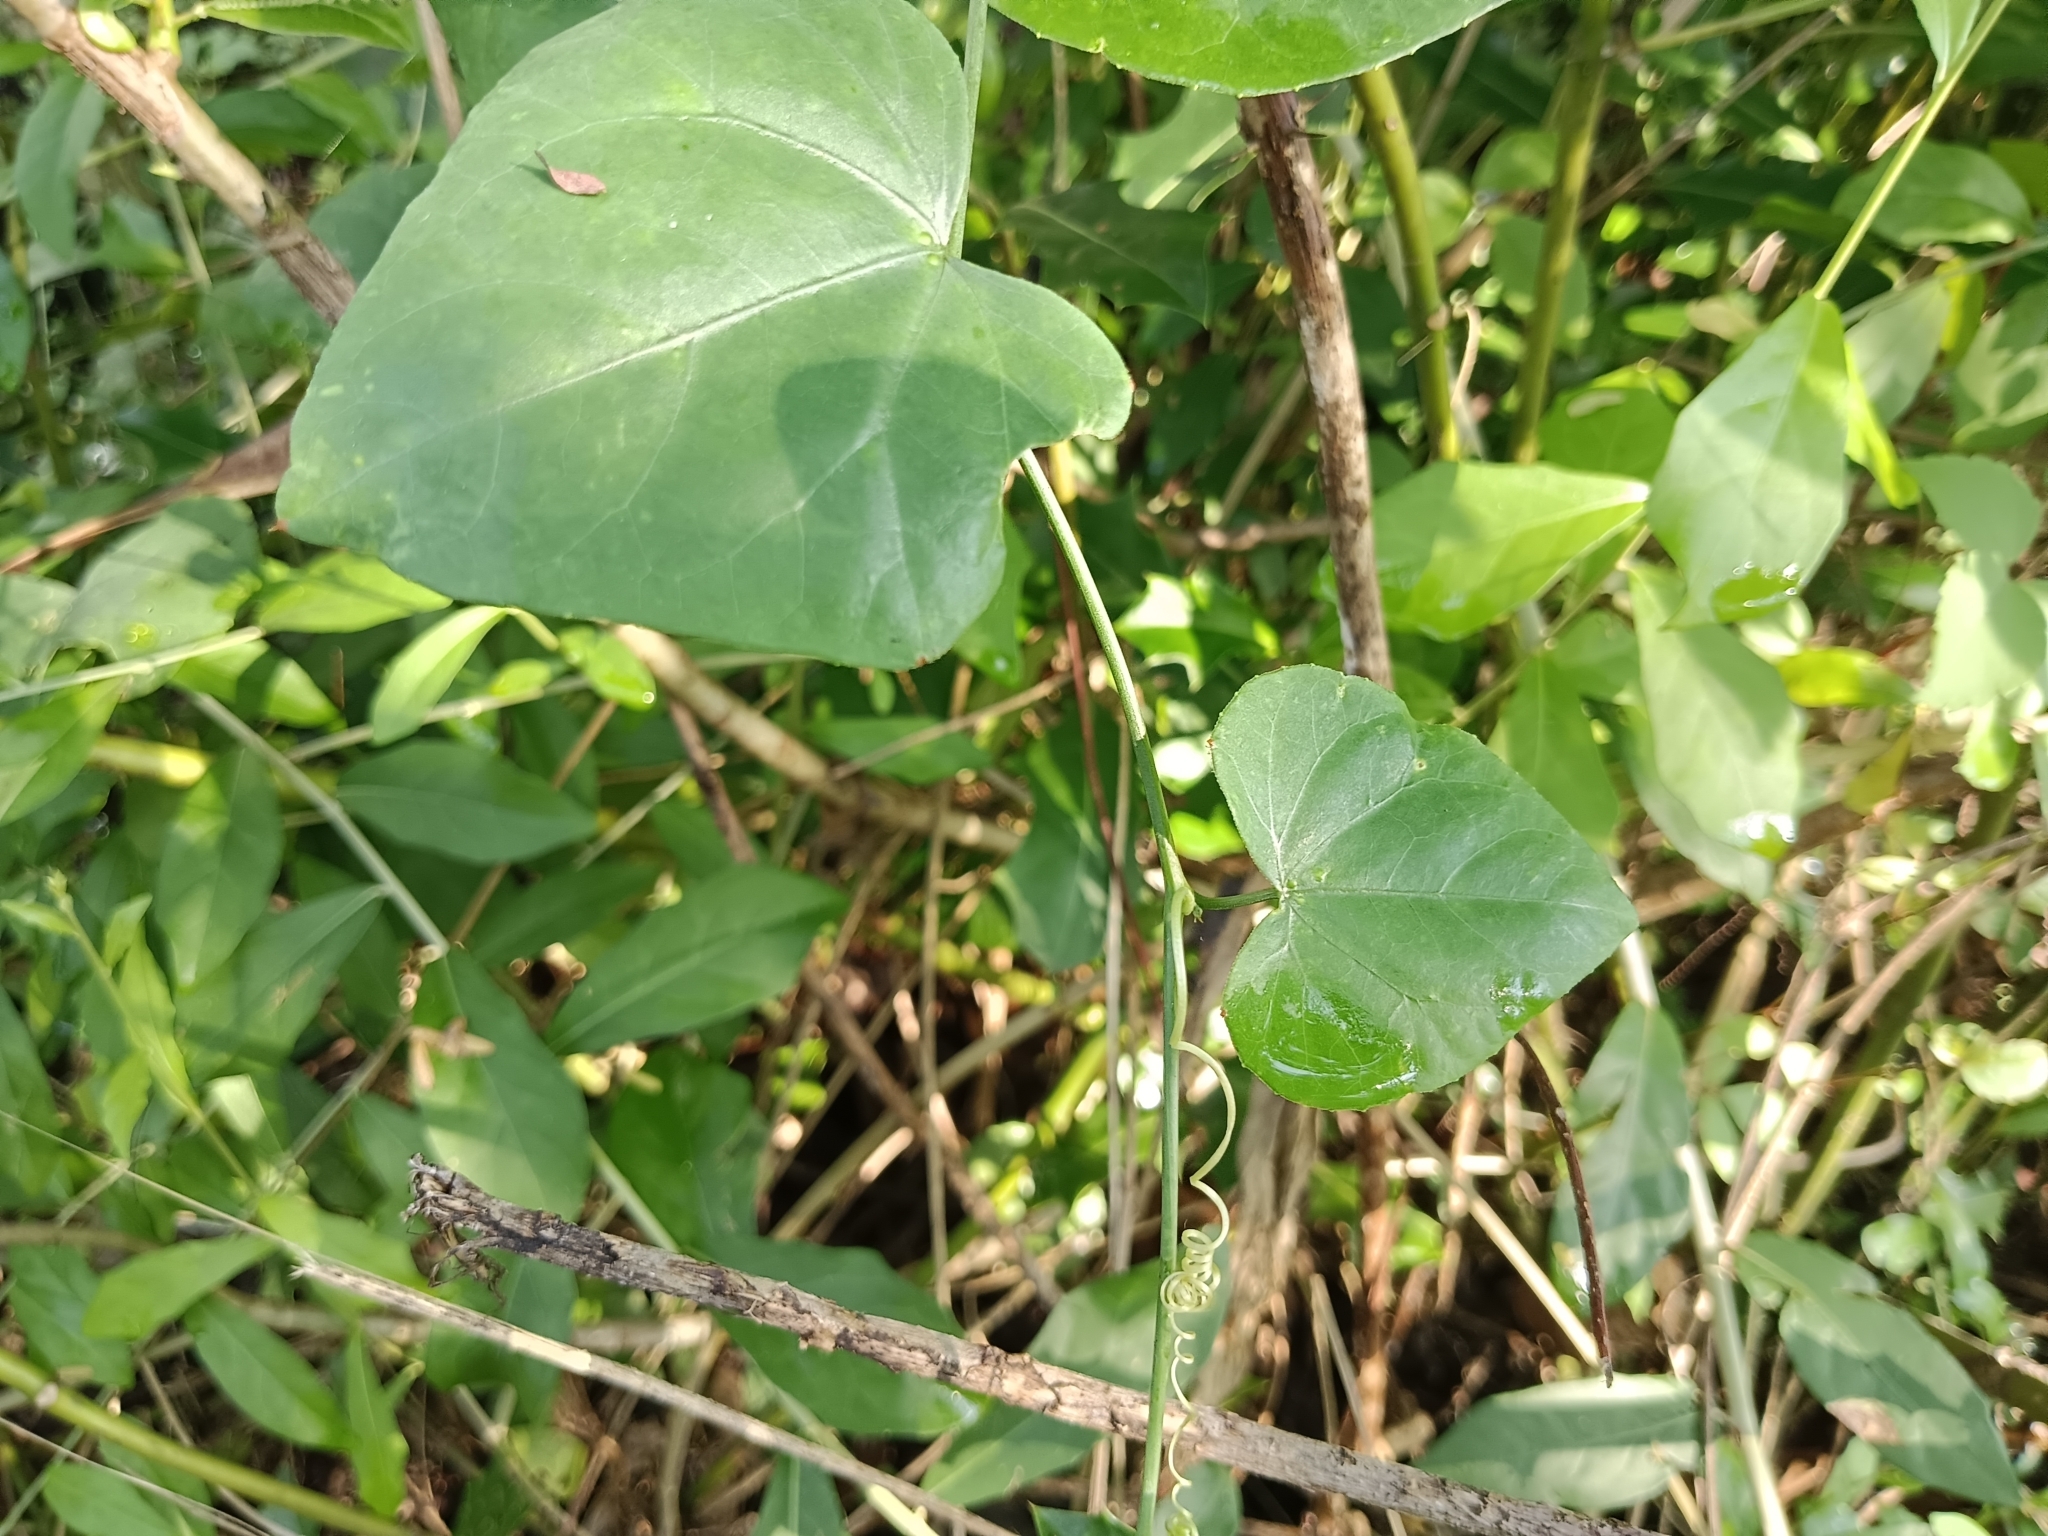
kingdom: Plantae
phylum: Tracheophyta
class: Magnoliopsida
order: Cucurbitales
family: Cucurbitaceae
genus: Coccinia
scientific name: Coccinia grandis
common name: Ivy gourd
